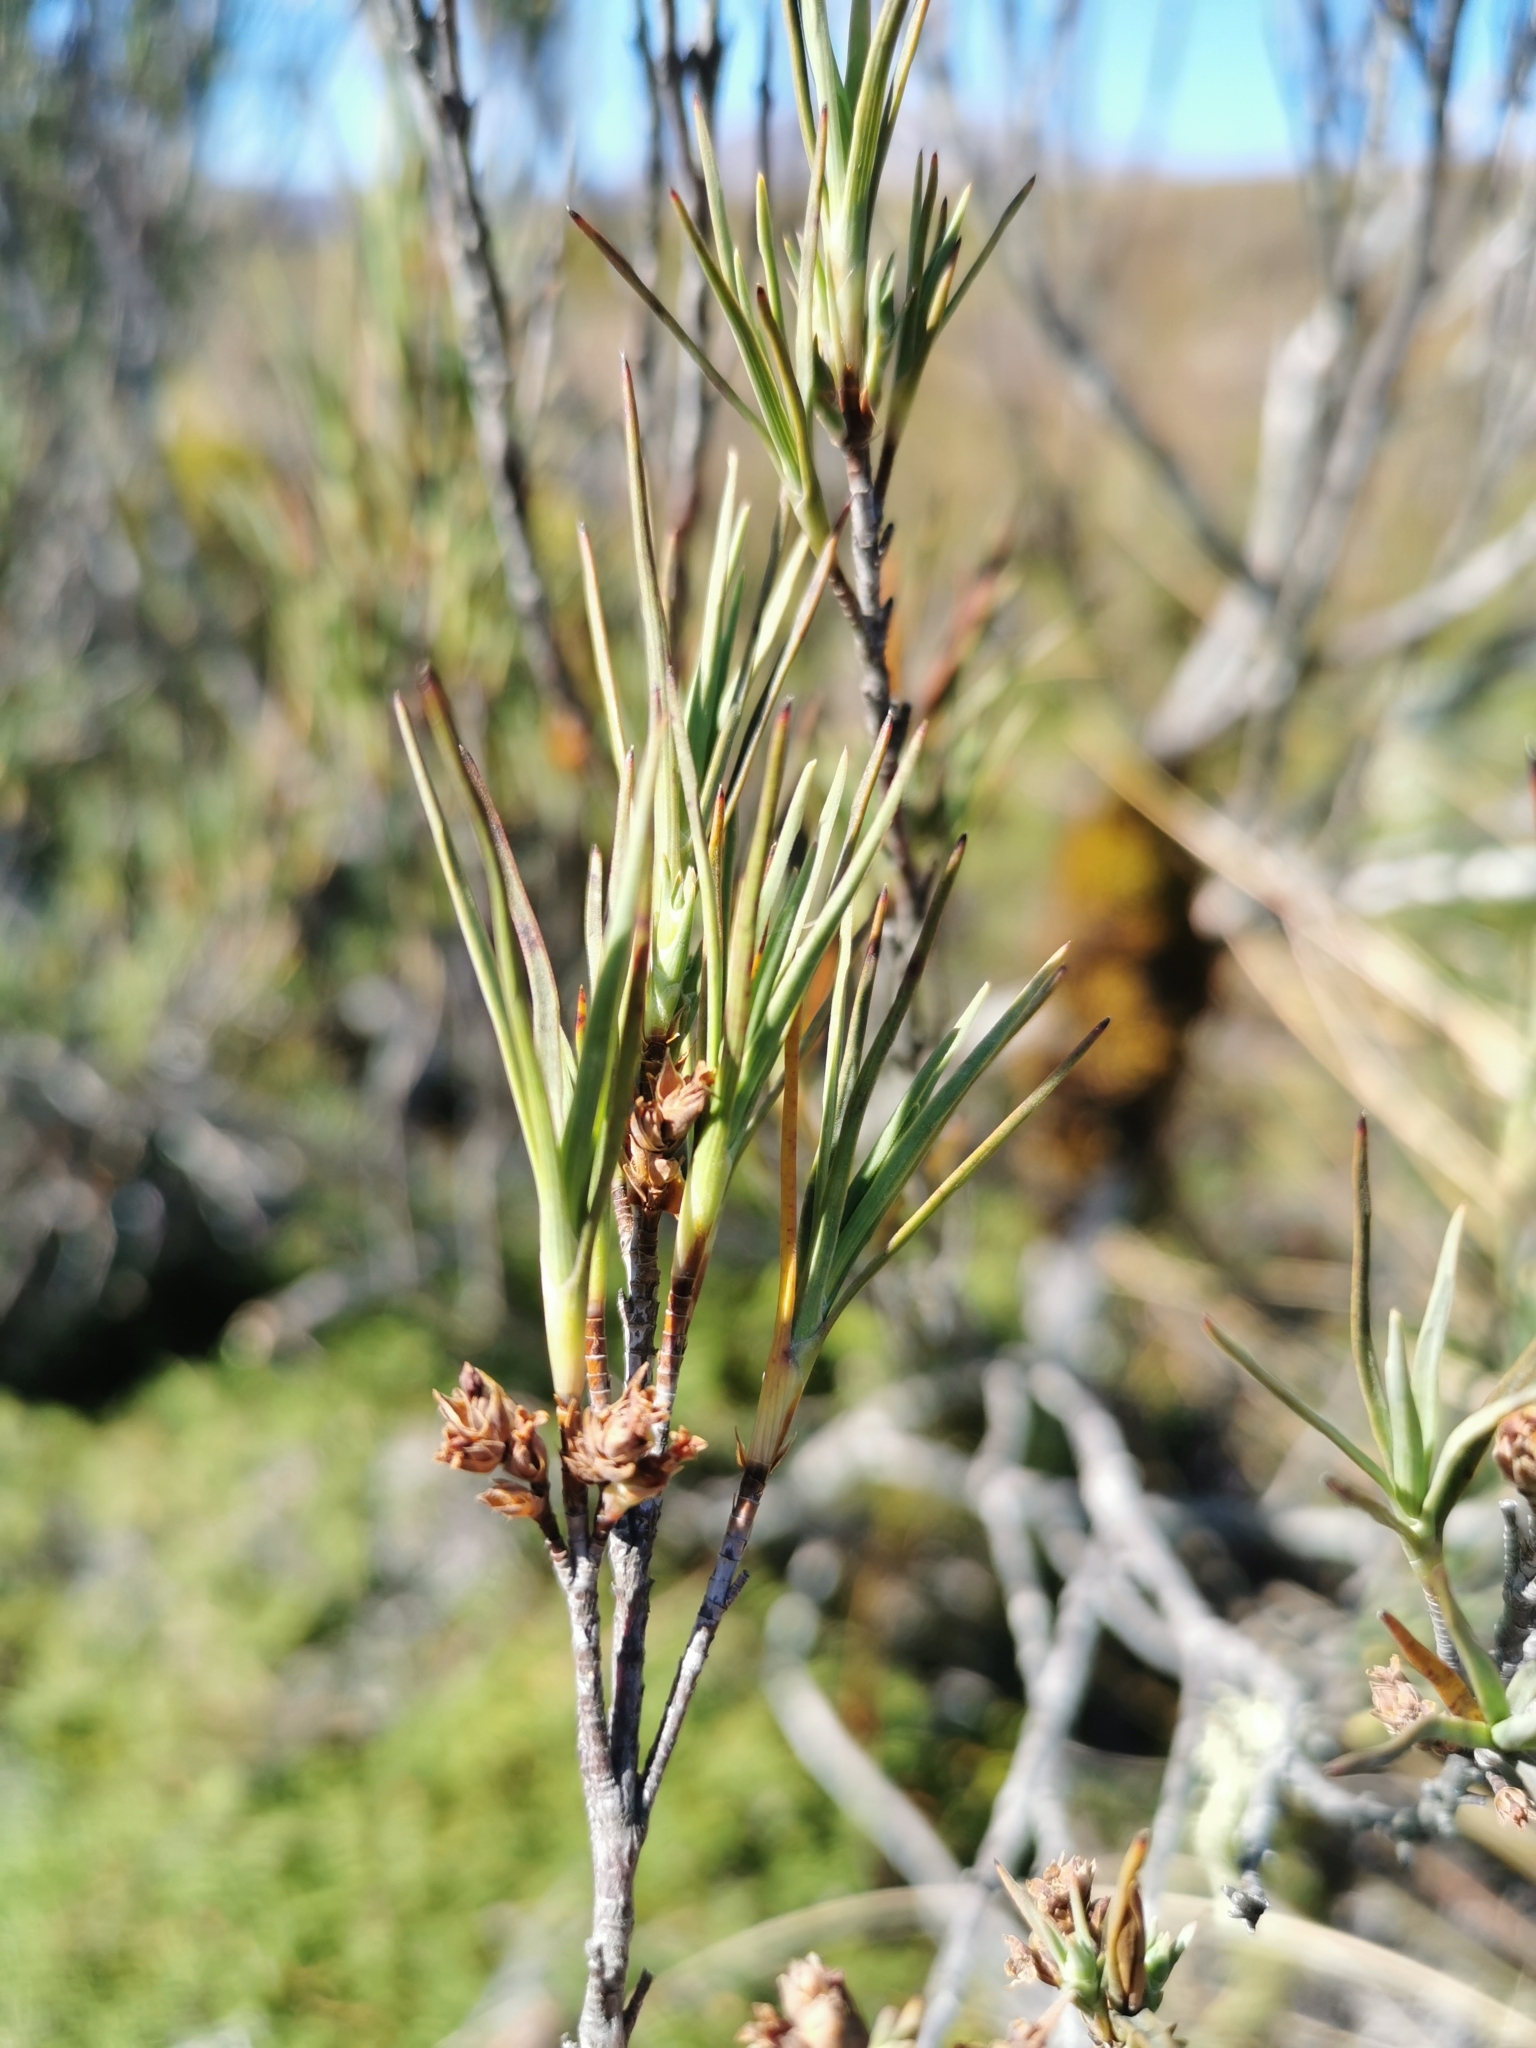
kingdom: Plantae
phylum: Tracheophyta
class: Magnoliopsida
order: Ericales
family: Ericaceae
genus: Dracophyllum
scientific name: Dracophyllum subulatum
